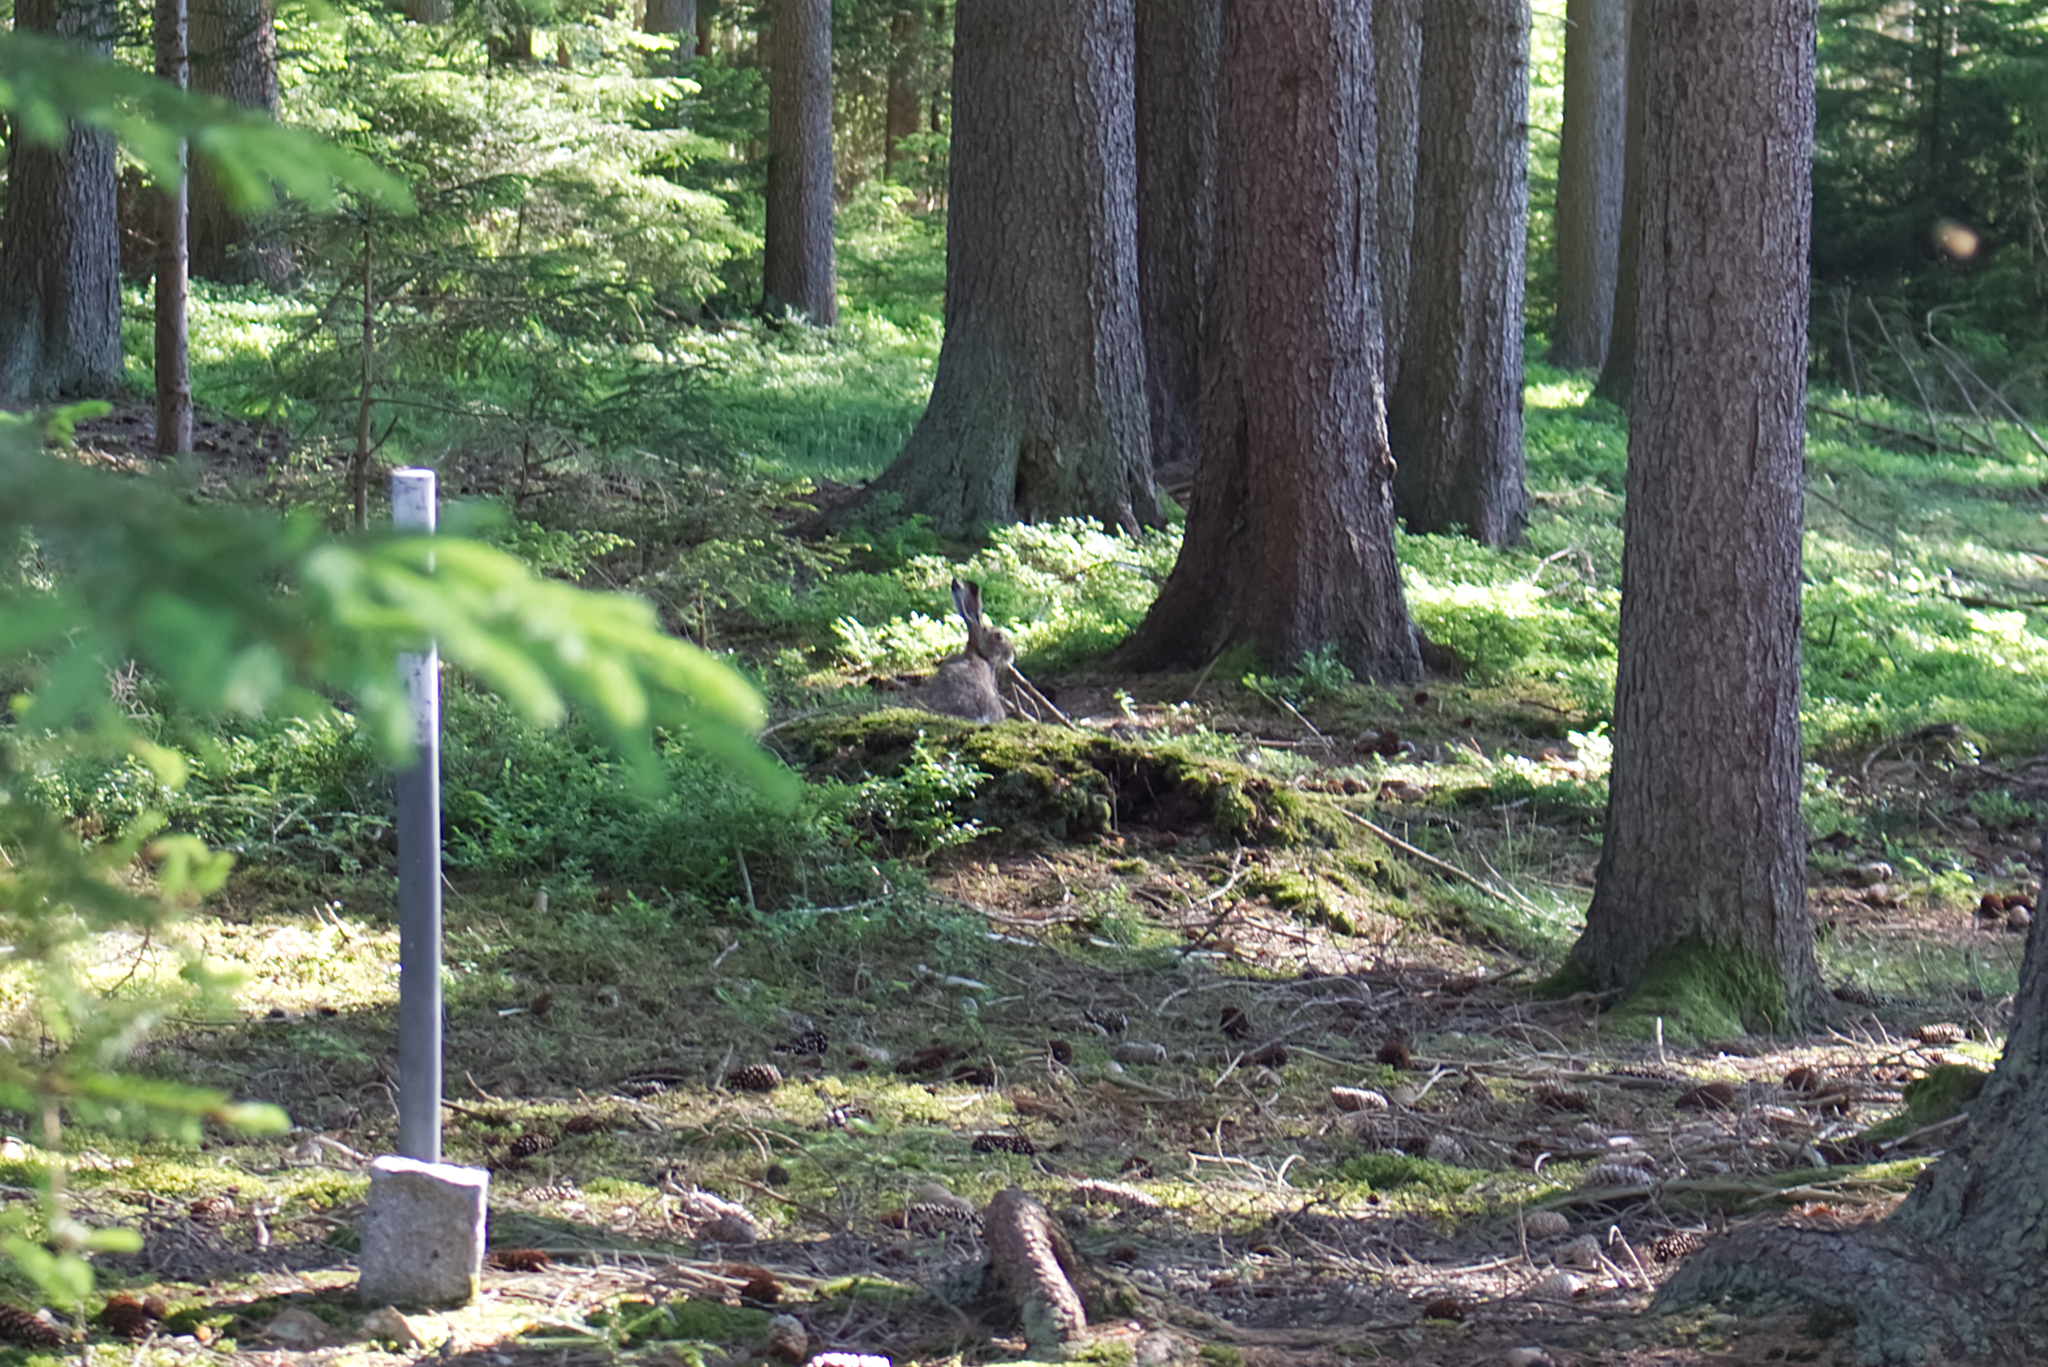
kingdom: Animalia
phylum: Chordata
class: Mammalia
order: Lagomorpha
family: Leporidae
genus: Lepus
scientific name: Lepus europaeus
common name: European hare
